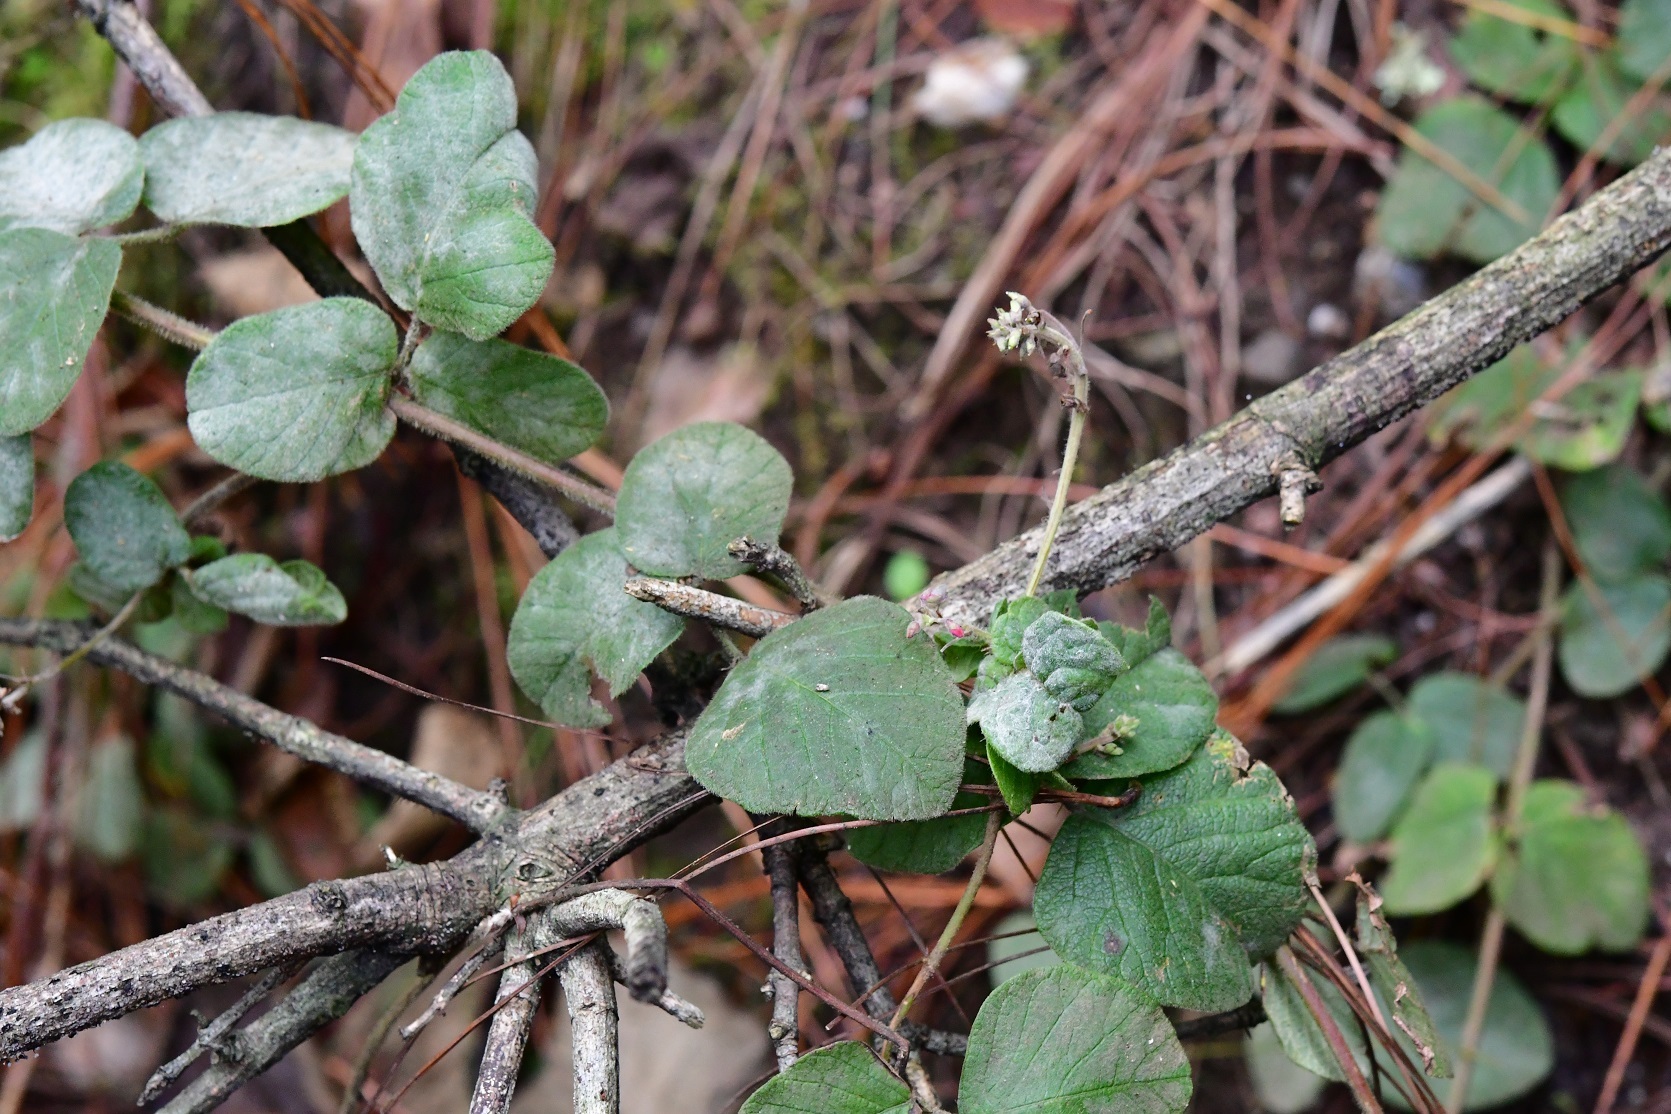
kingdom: Plantae
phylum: Tracheophyta
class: Magnoliopsida
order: Fabales
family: Fabaceae
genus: Desmodium
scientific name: Desmodium molliculum
